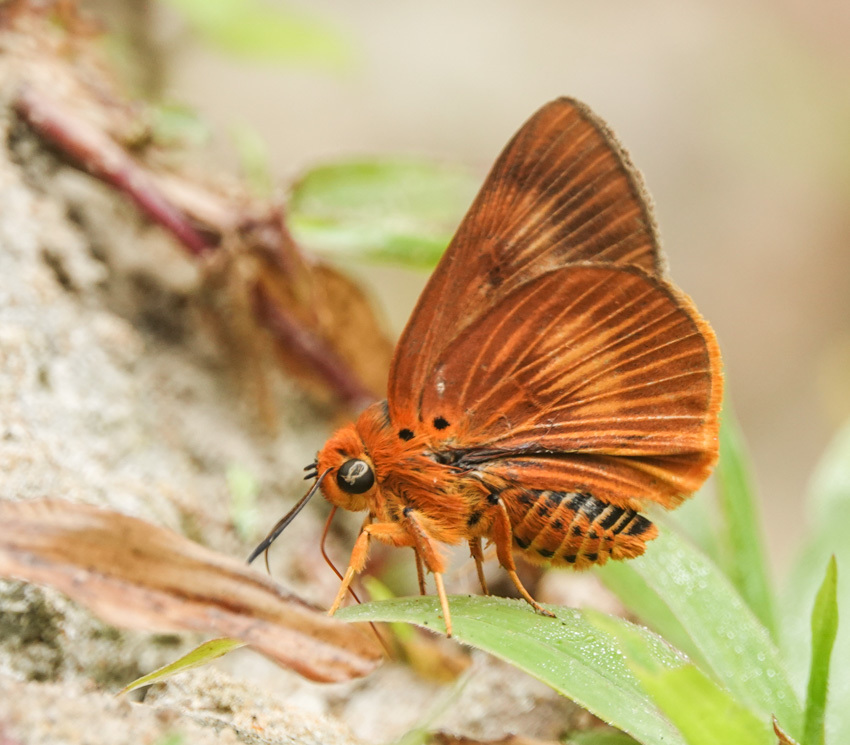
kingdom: Animalia
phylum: Arthropoda
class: Insecta
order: Lepidoptera
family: Hesperiidae
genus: Bibasis
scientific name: Bibasis harisa
